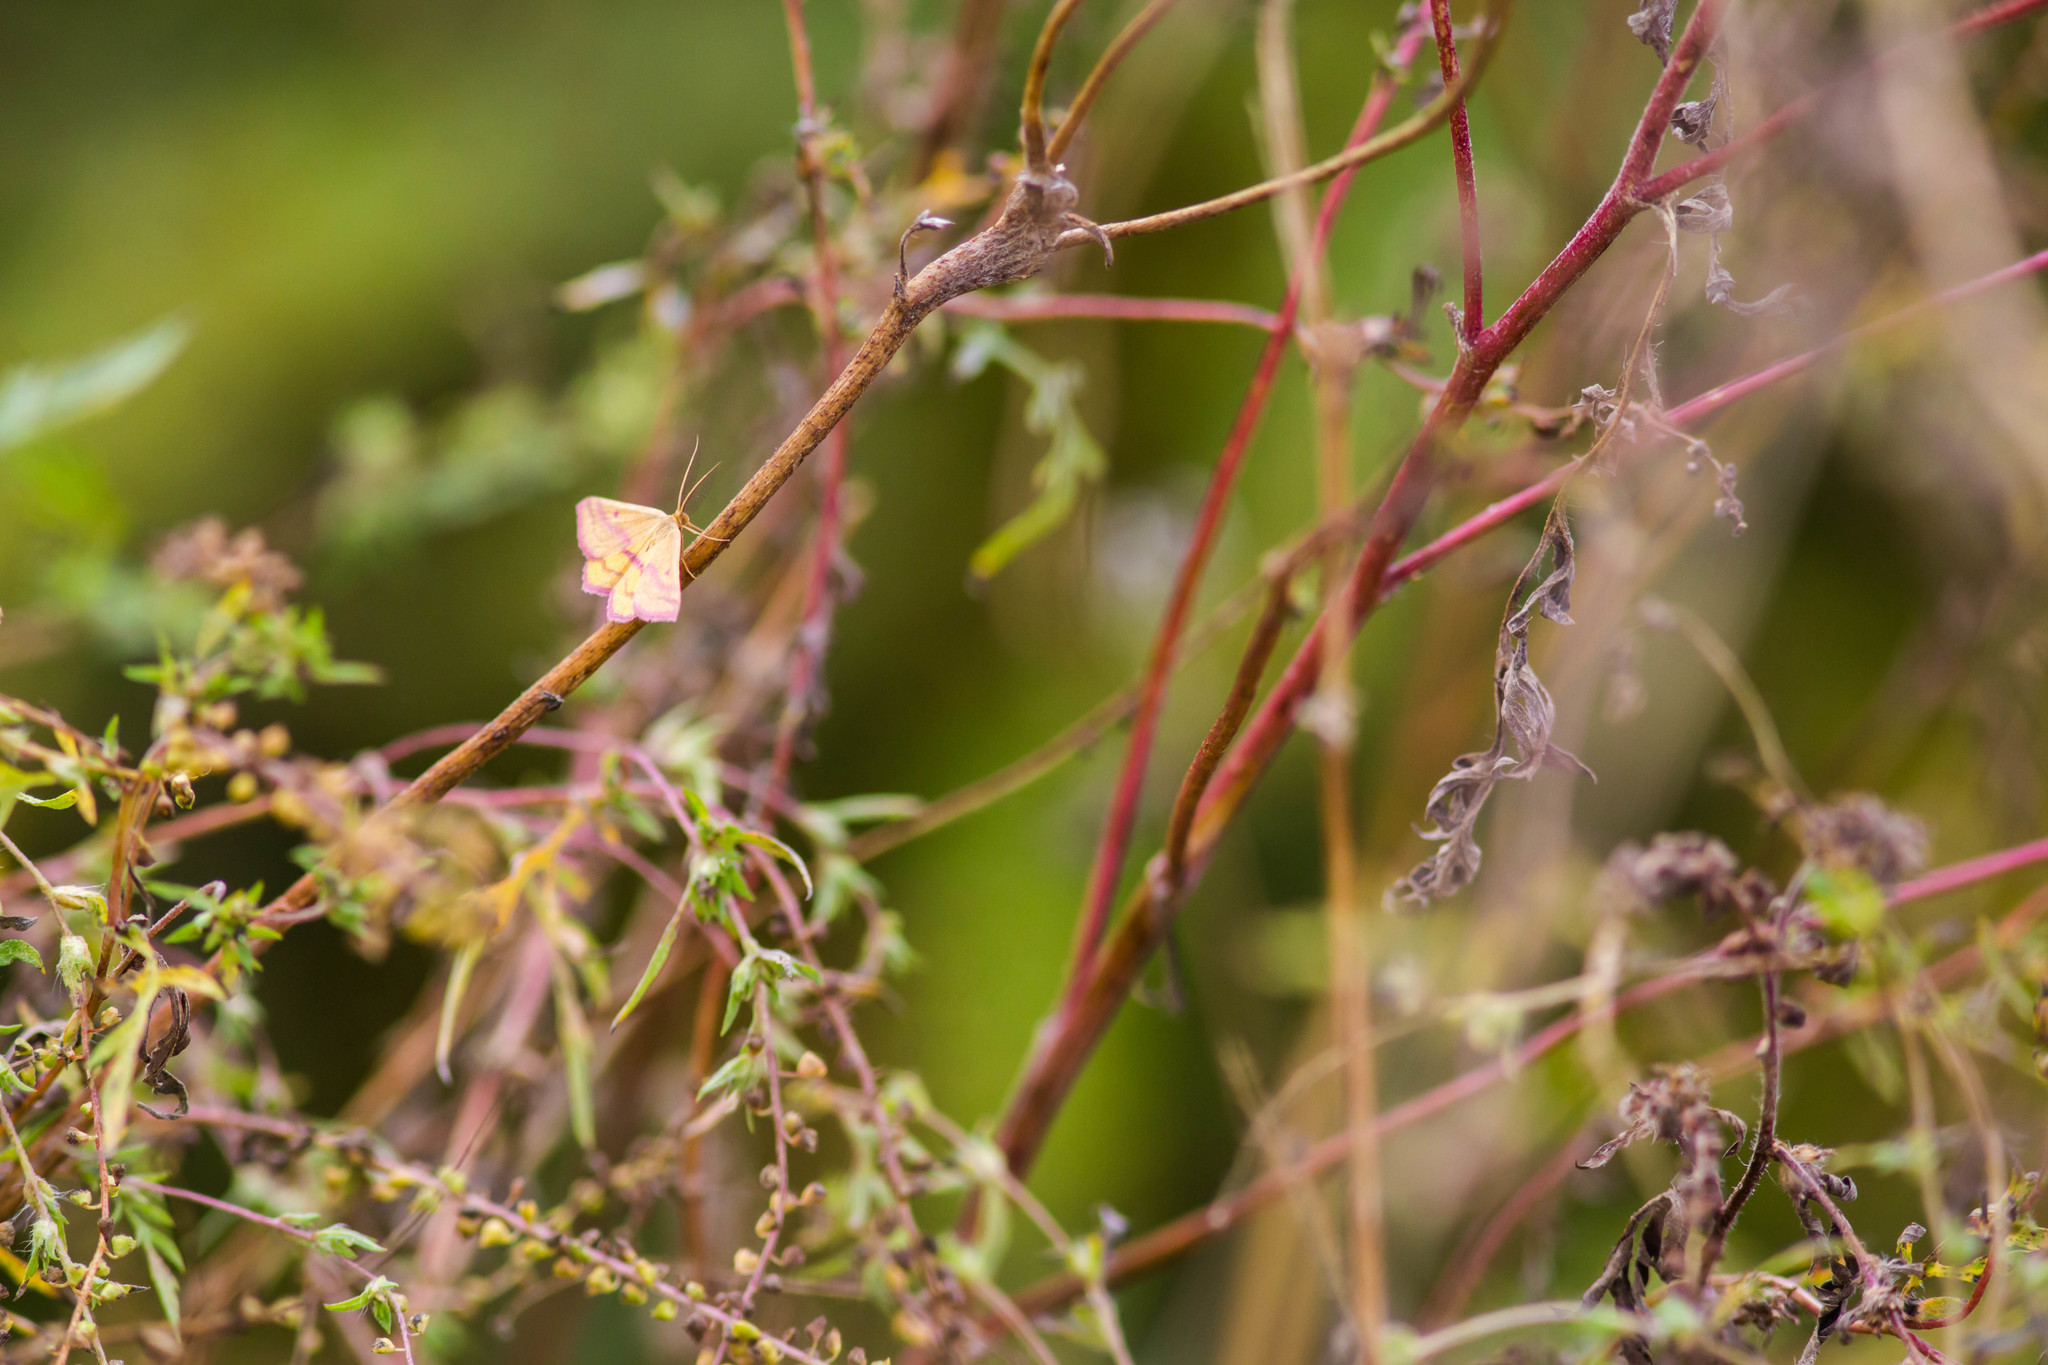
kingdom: Animalia
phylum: Arthropoda
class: Insecta
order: Lepidoptera
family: Geometridae
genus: Haematopis
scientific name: Haematopis grataria
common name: Chickweed geometer
